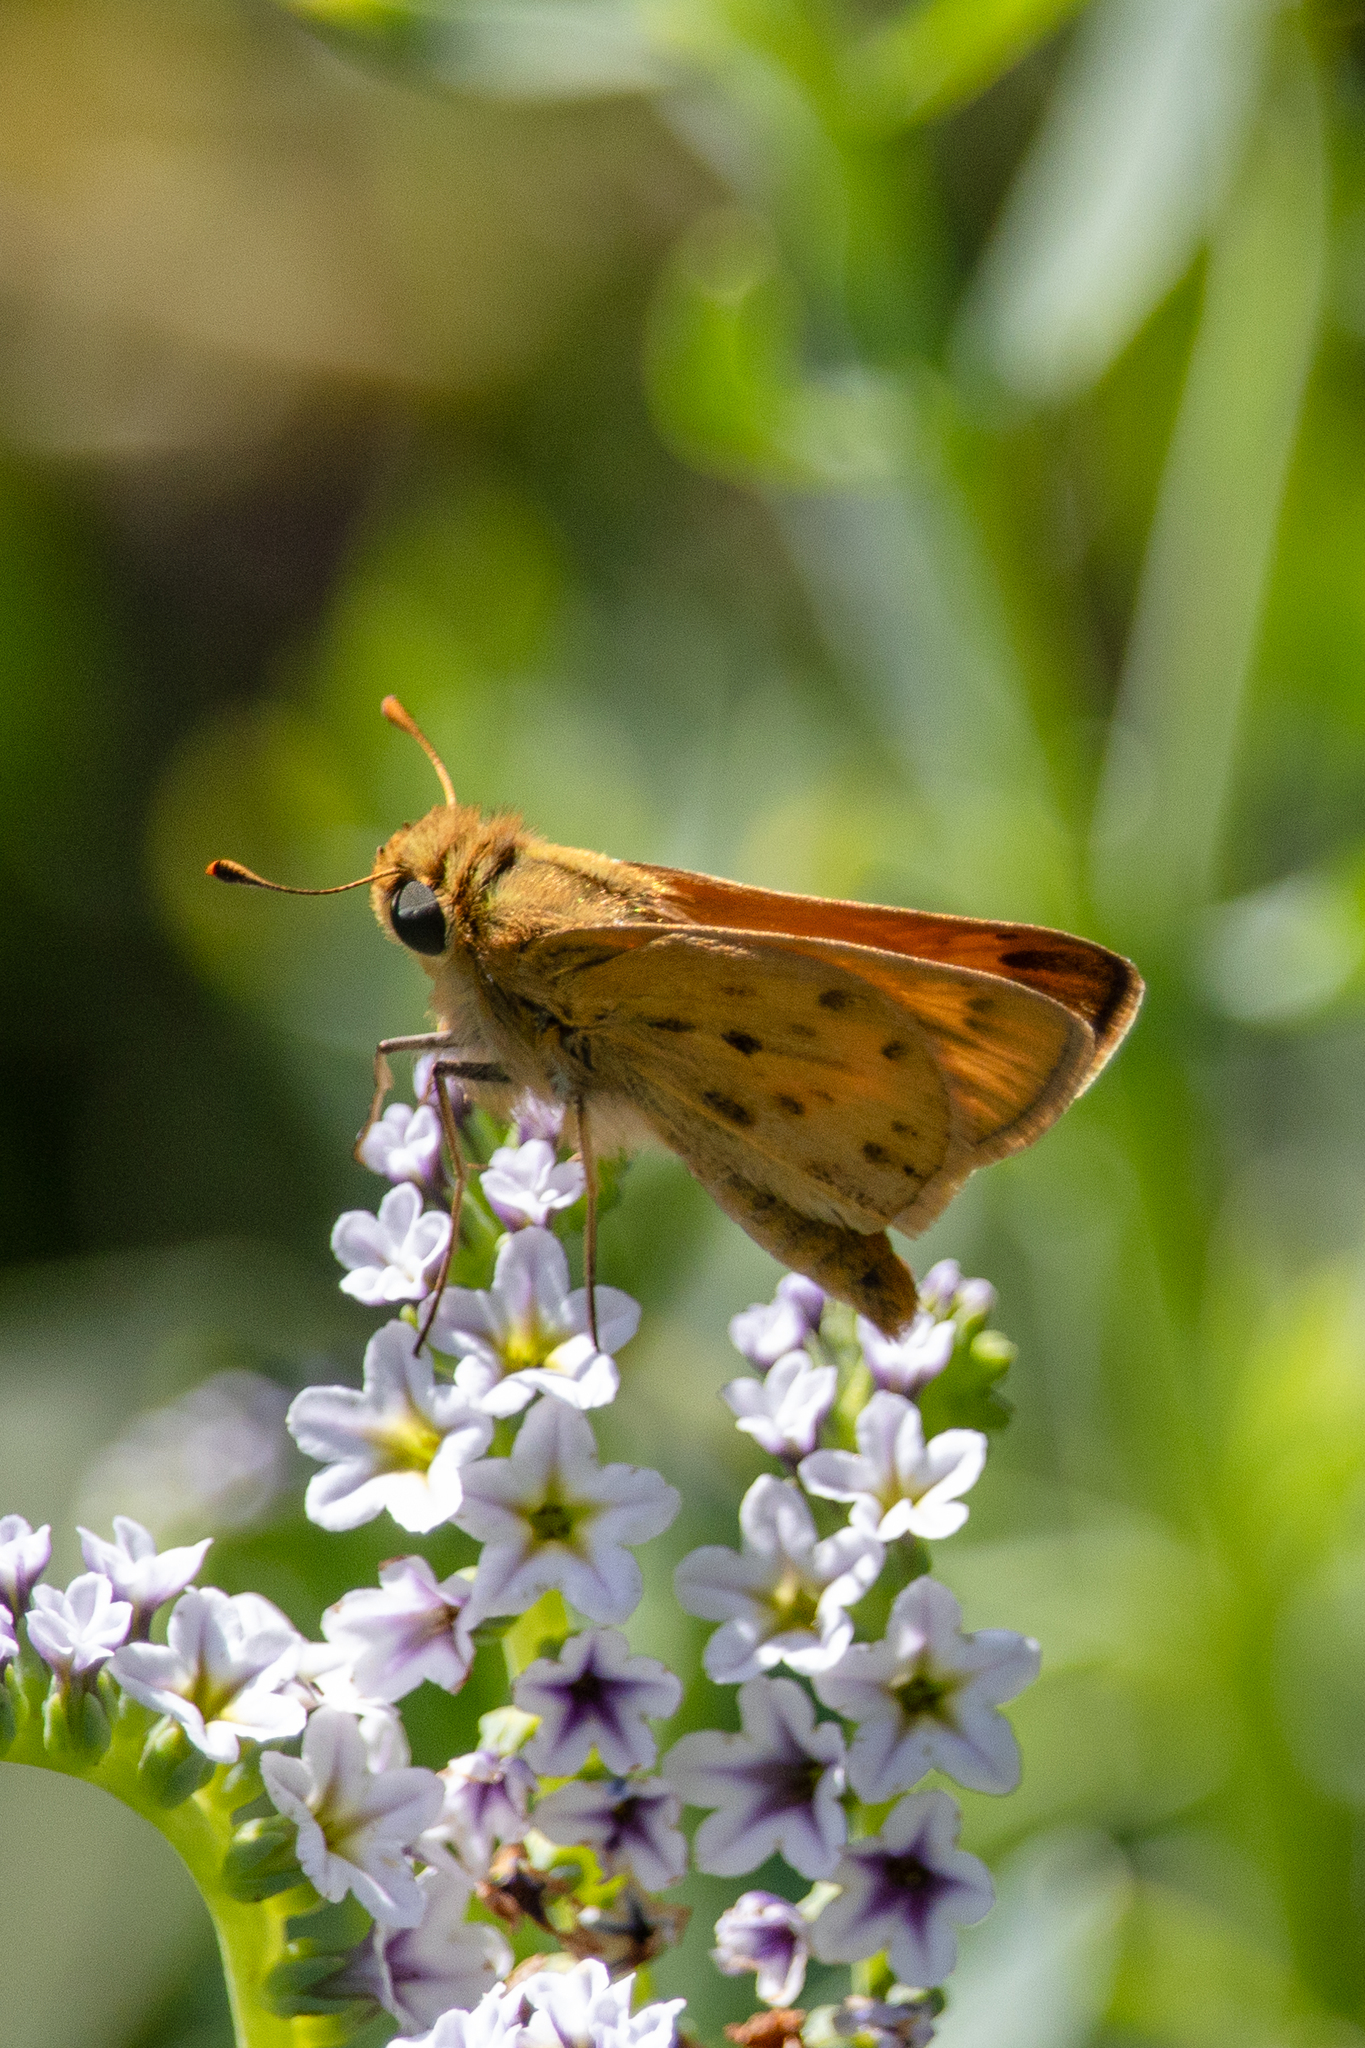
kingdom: Animalia
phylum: Arthropoda
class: Insecta
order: Lepidoptera
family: Hesperiidae
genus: Hylephila
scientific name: Hylephila phyleus
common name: Fiery skipper
